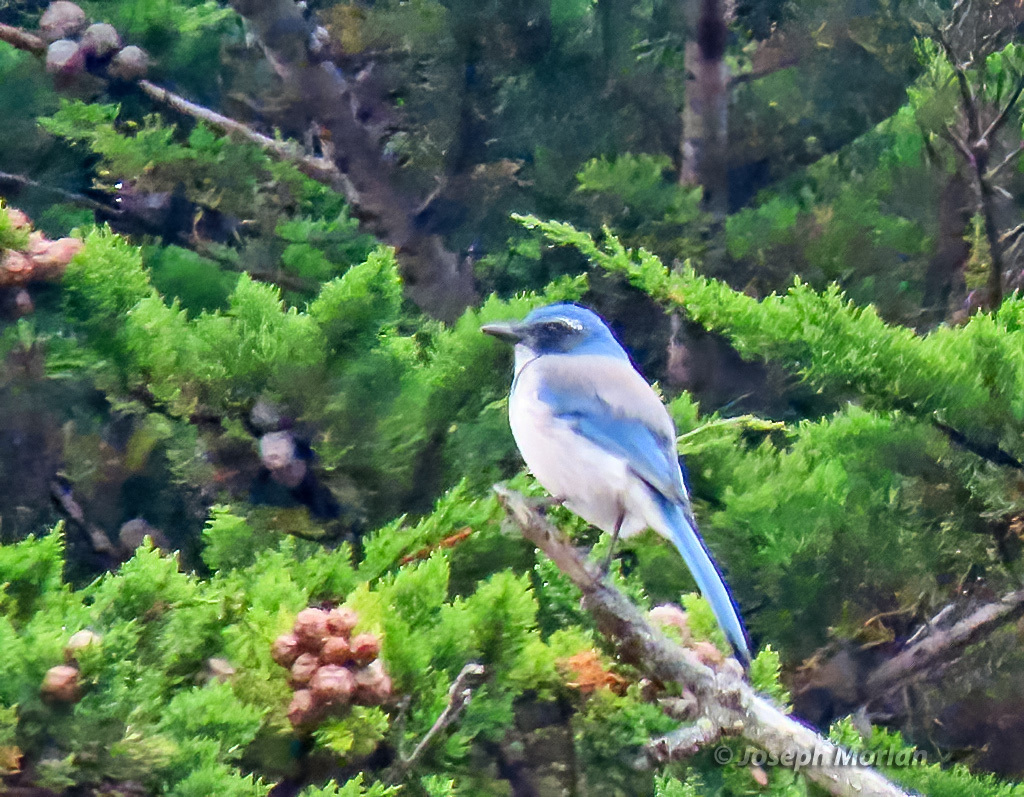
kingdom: Animalia
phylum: Chordata
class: Aves
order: Passeriformes
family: Corvidae
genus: Aphelocoma
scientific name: Aphelocoma californica
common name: California scrub-jay
